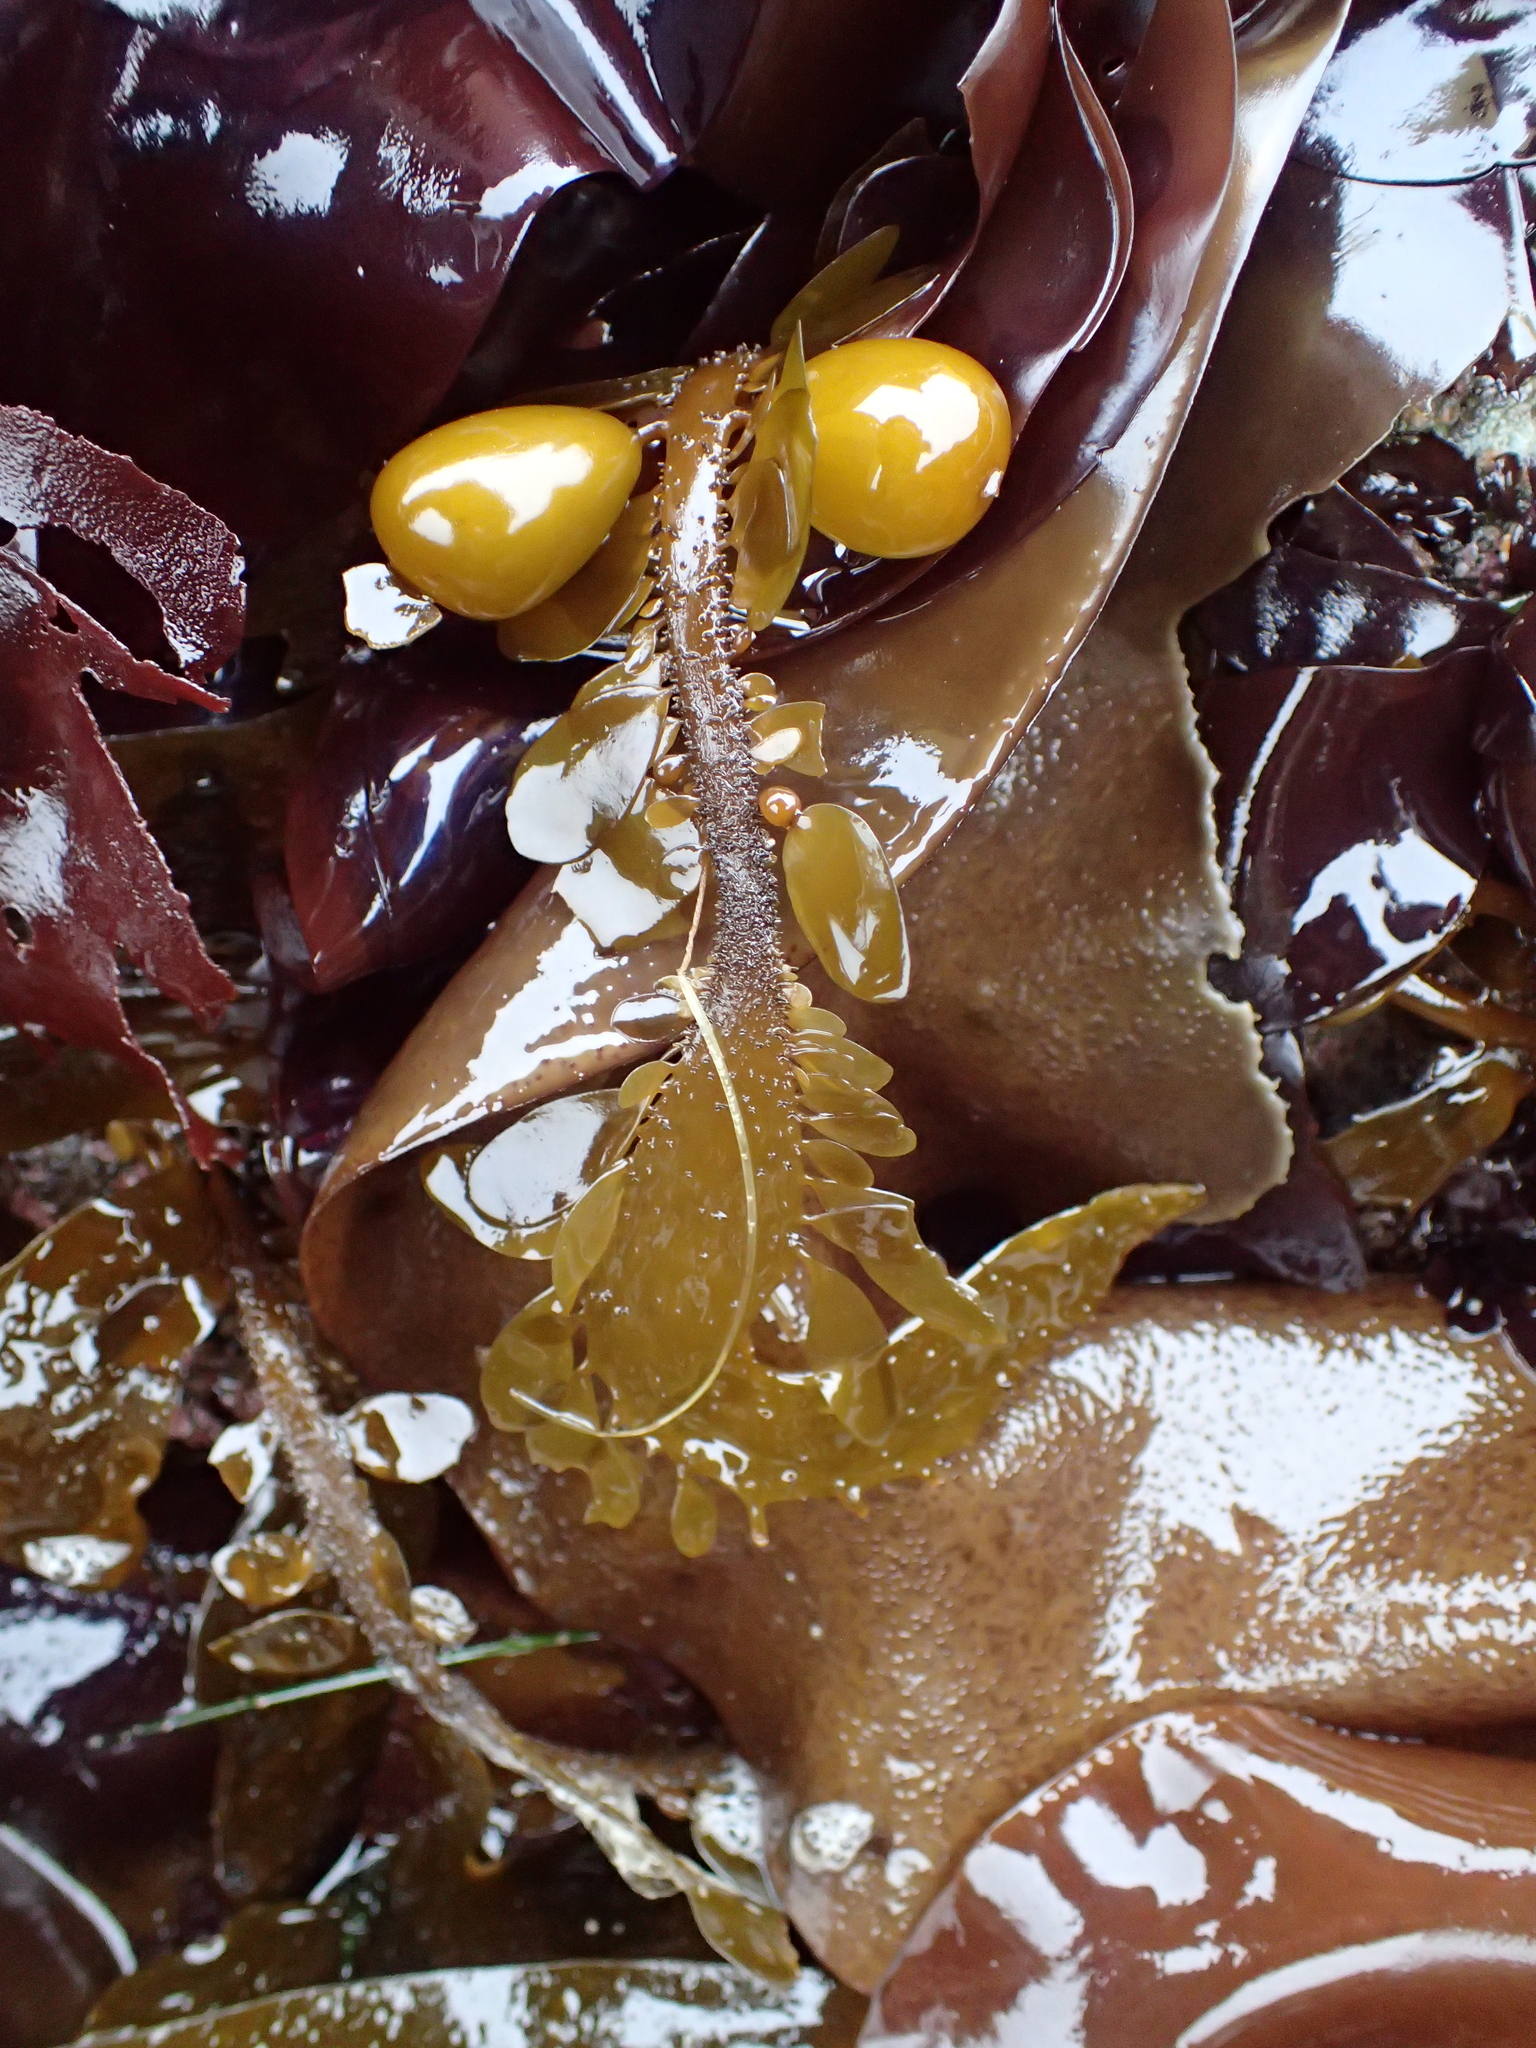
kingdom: Chromista
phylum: Ochrophyta
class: Phaeophyceae
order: Laminariales
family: Lessoniaceae
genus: Egregia
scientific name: Egregia menziesii
